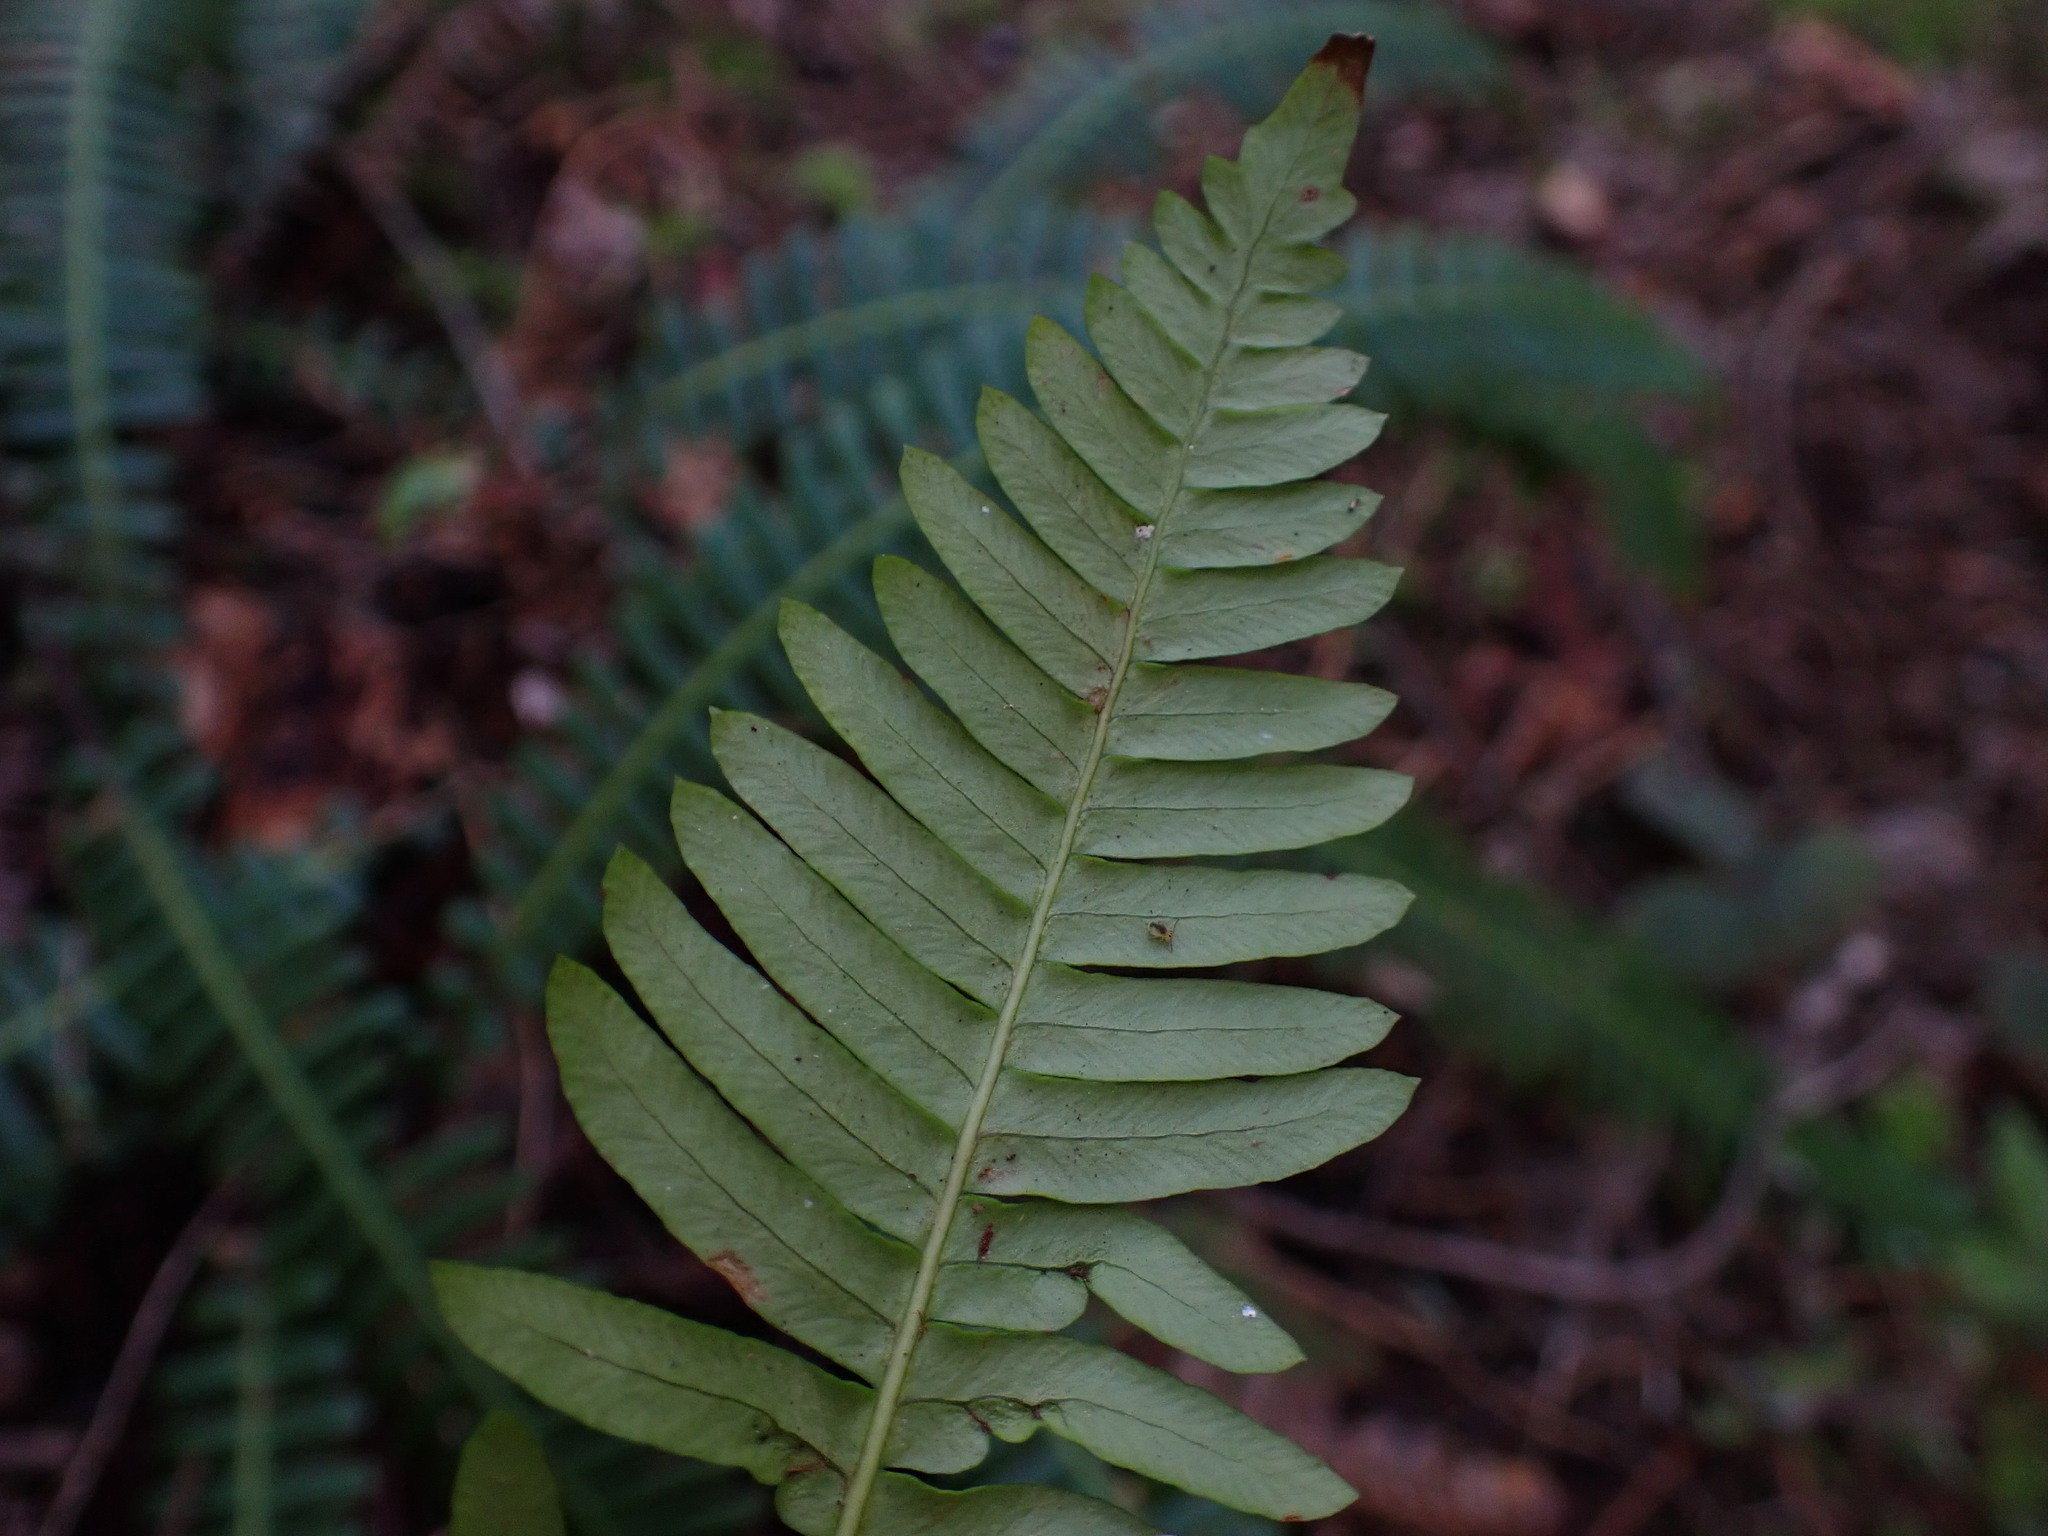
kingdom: Plantae
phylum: Tracheophyta
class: Polypodiopsida
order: Polypodiales
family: Blechnaceae
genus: Struthiopteris
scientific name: Struthiopteris spicant
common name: Deer fern
